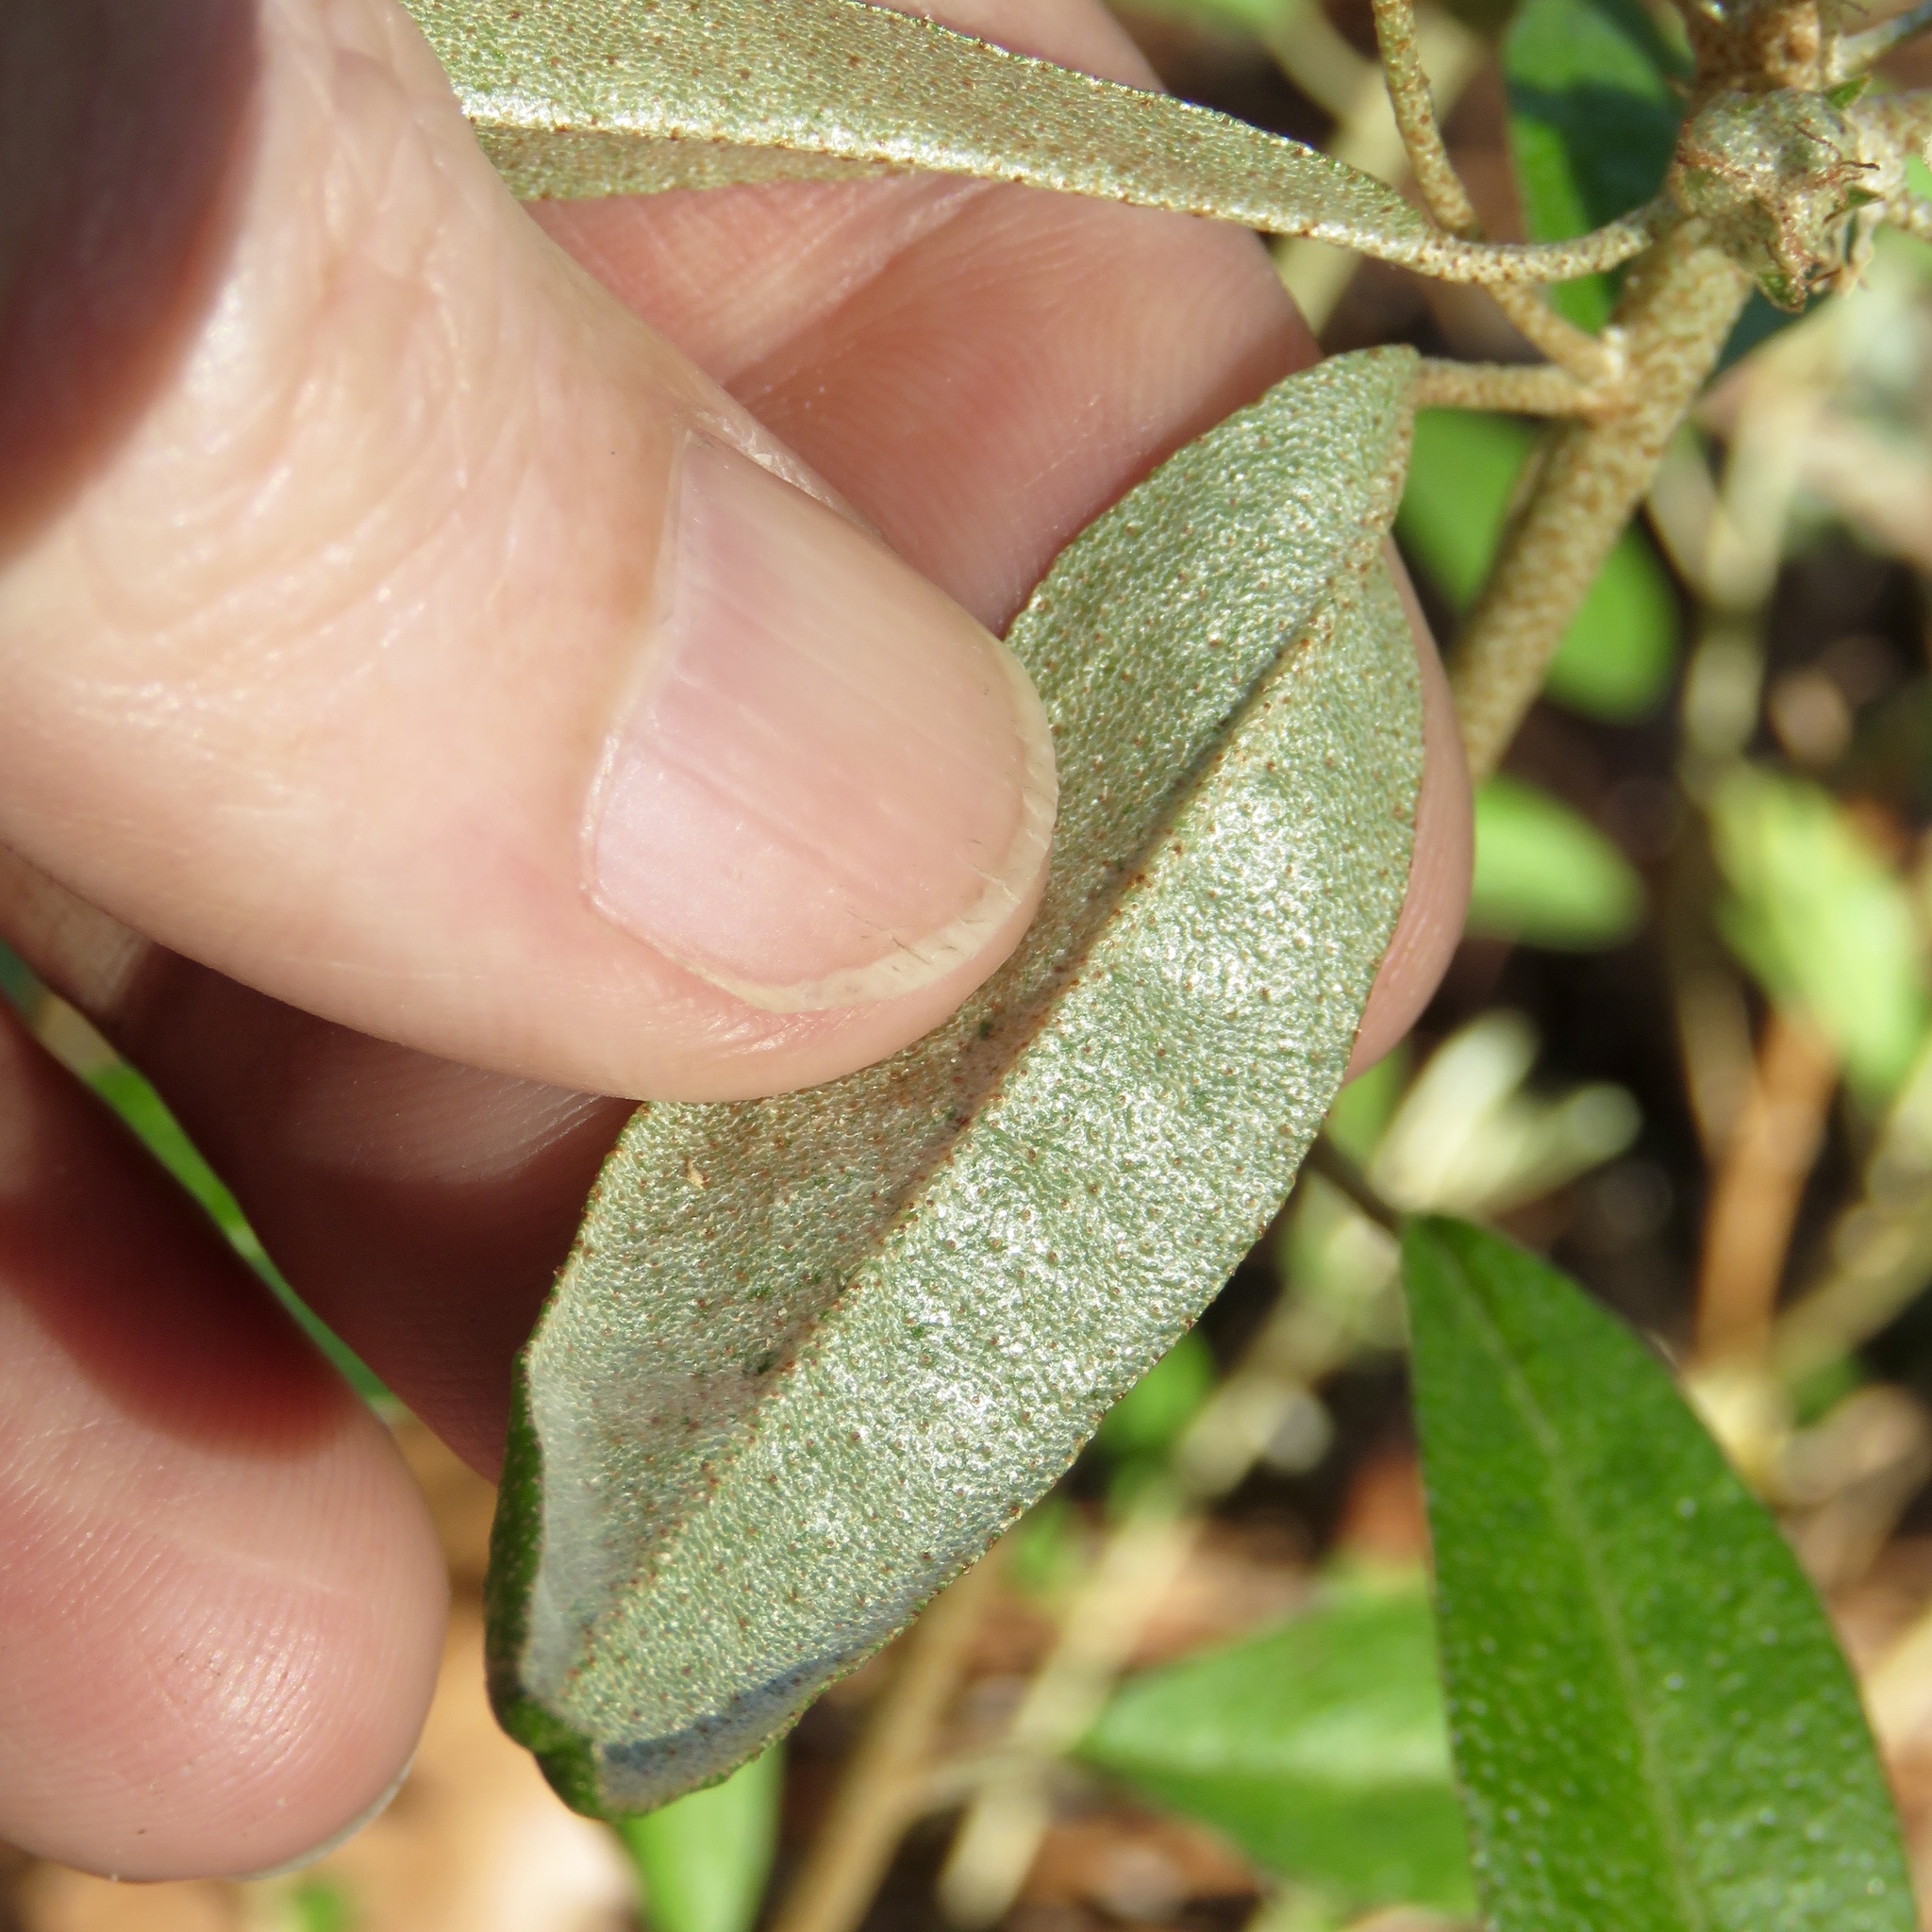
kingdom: Plantae
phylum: Tracheophyta
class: Magnoliopsida
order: Malpighiales
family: Euphorbiaceae
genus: Croton
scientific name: Croton argyranthemus
